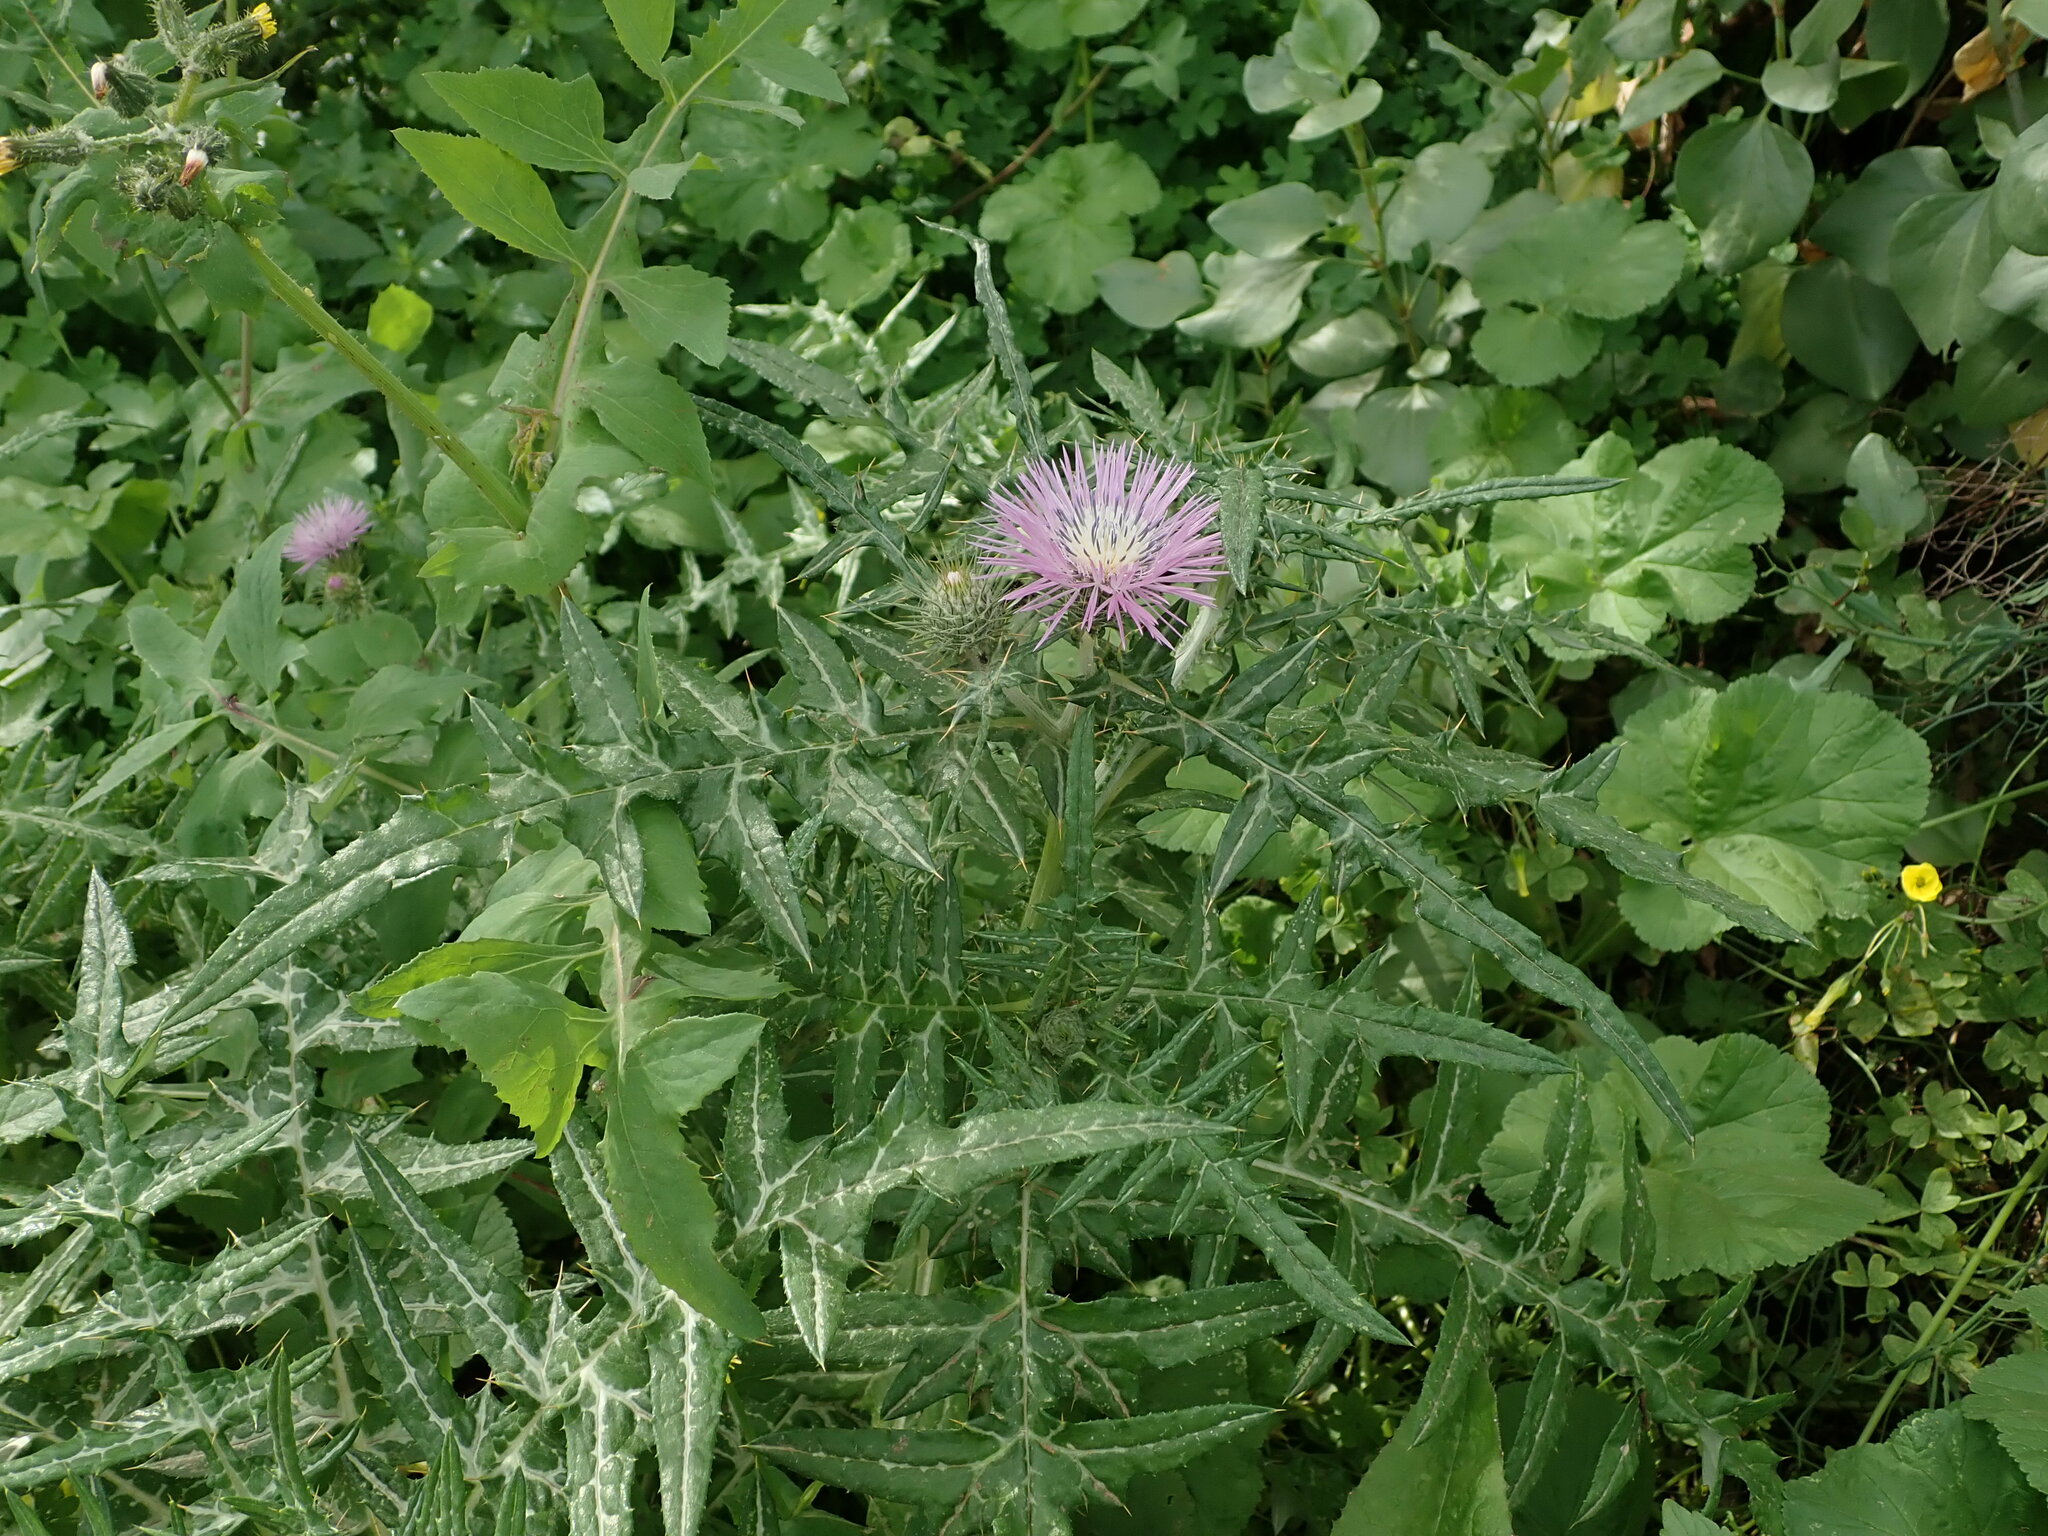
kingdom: Plantae
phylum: Tracheophyta
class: Magnoliopsida
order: Asterales
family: Asteraceae
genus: Galactites
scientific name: Galactites tomentosa
